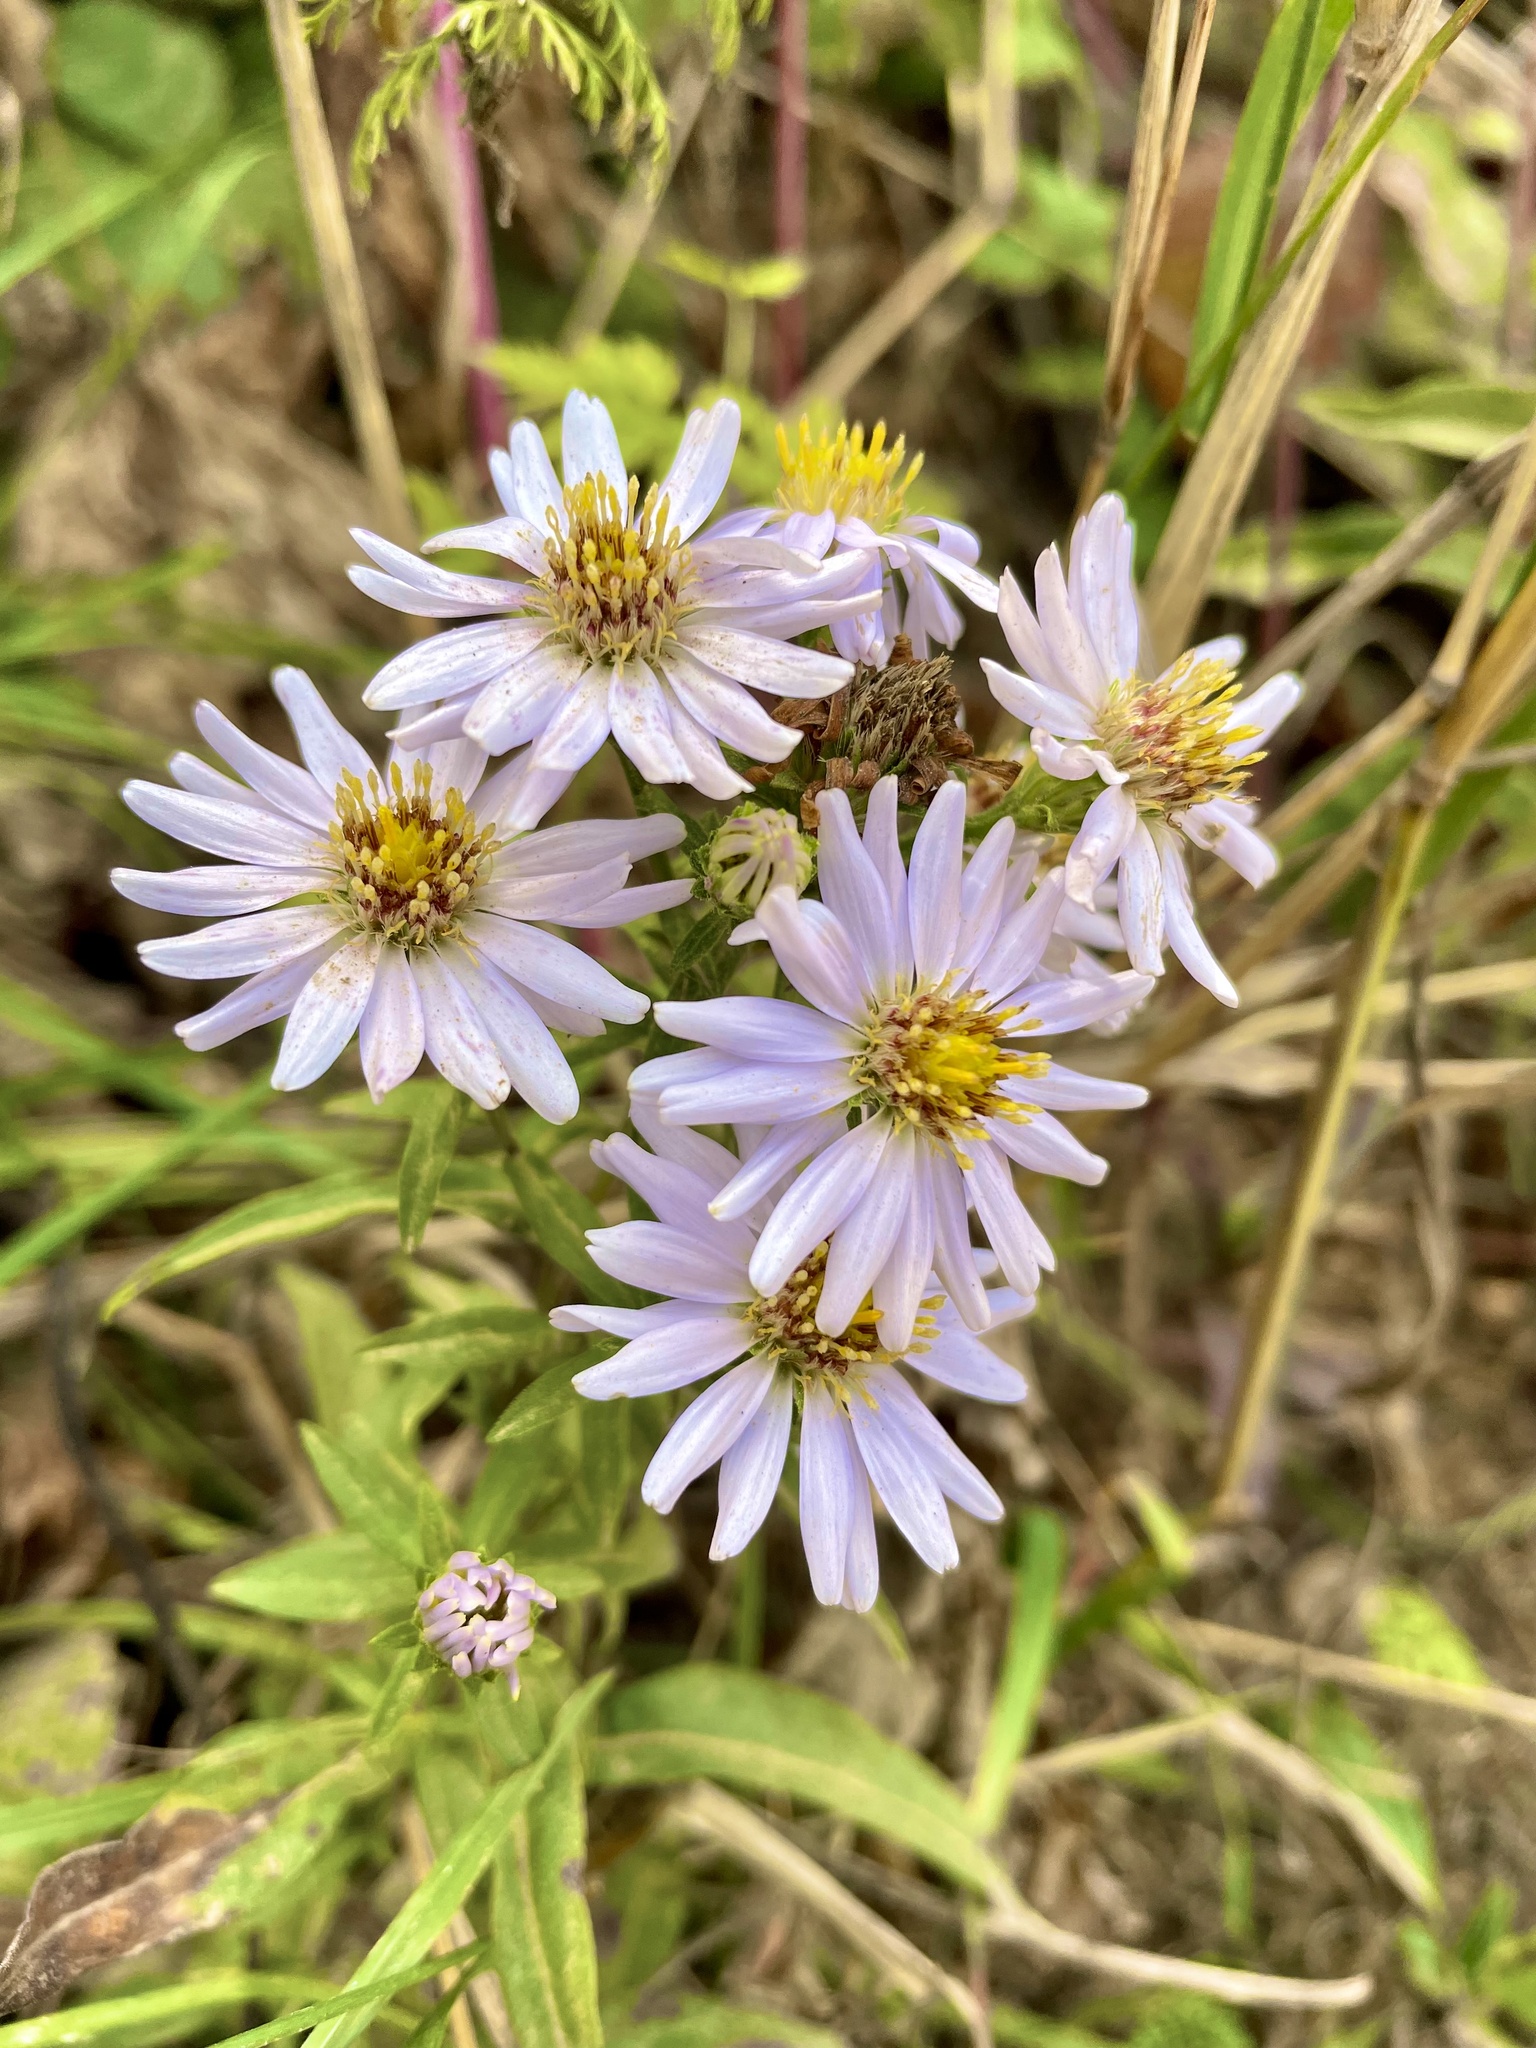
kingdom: Plantae
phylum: Tracheophyta
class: Magnoliopsida
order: Asterales
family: Asteraceae
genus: Symphyotrichum
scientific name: Symphyotrichum chilense
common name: Pacific aster
